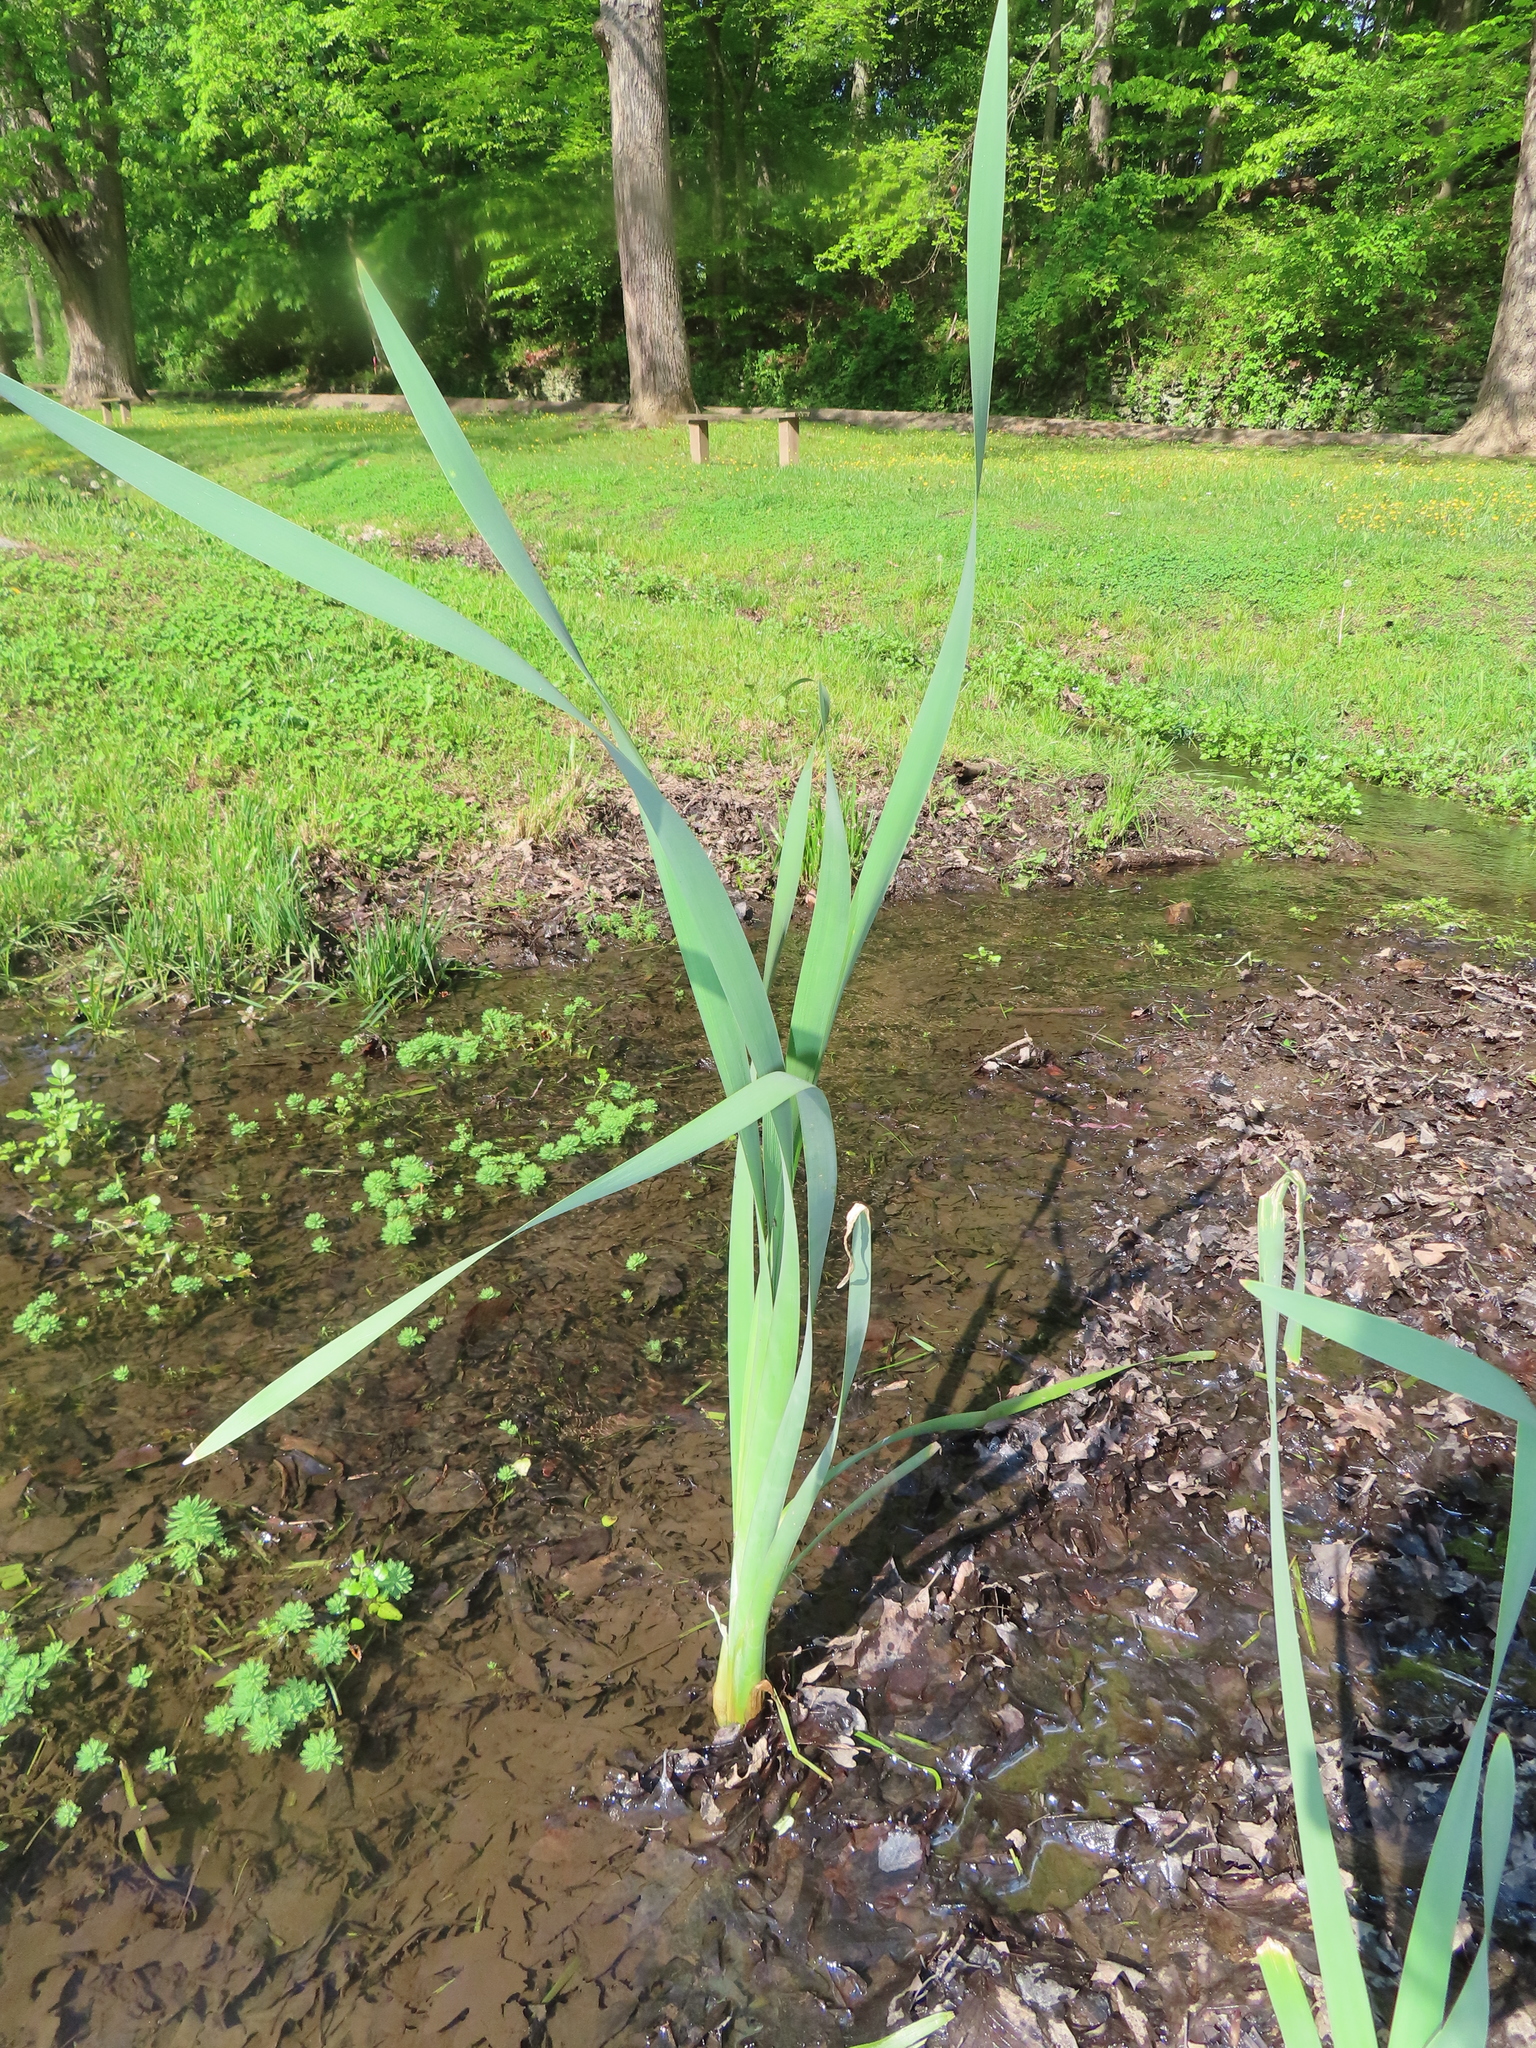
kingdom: Plantae
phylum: Tracheophyta
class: Liliopsida
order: Poales
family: Typhaceae
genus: Typha
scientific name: Typha latifolia
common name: Broadleaf cattail
